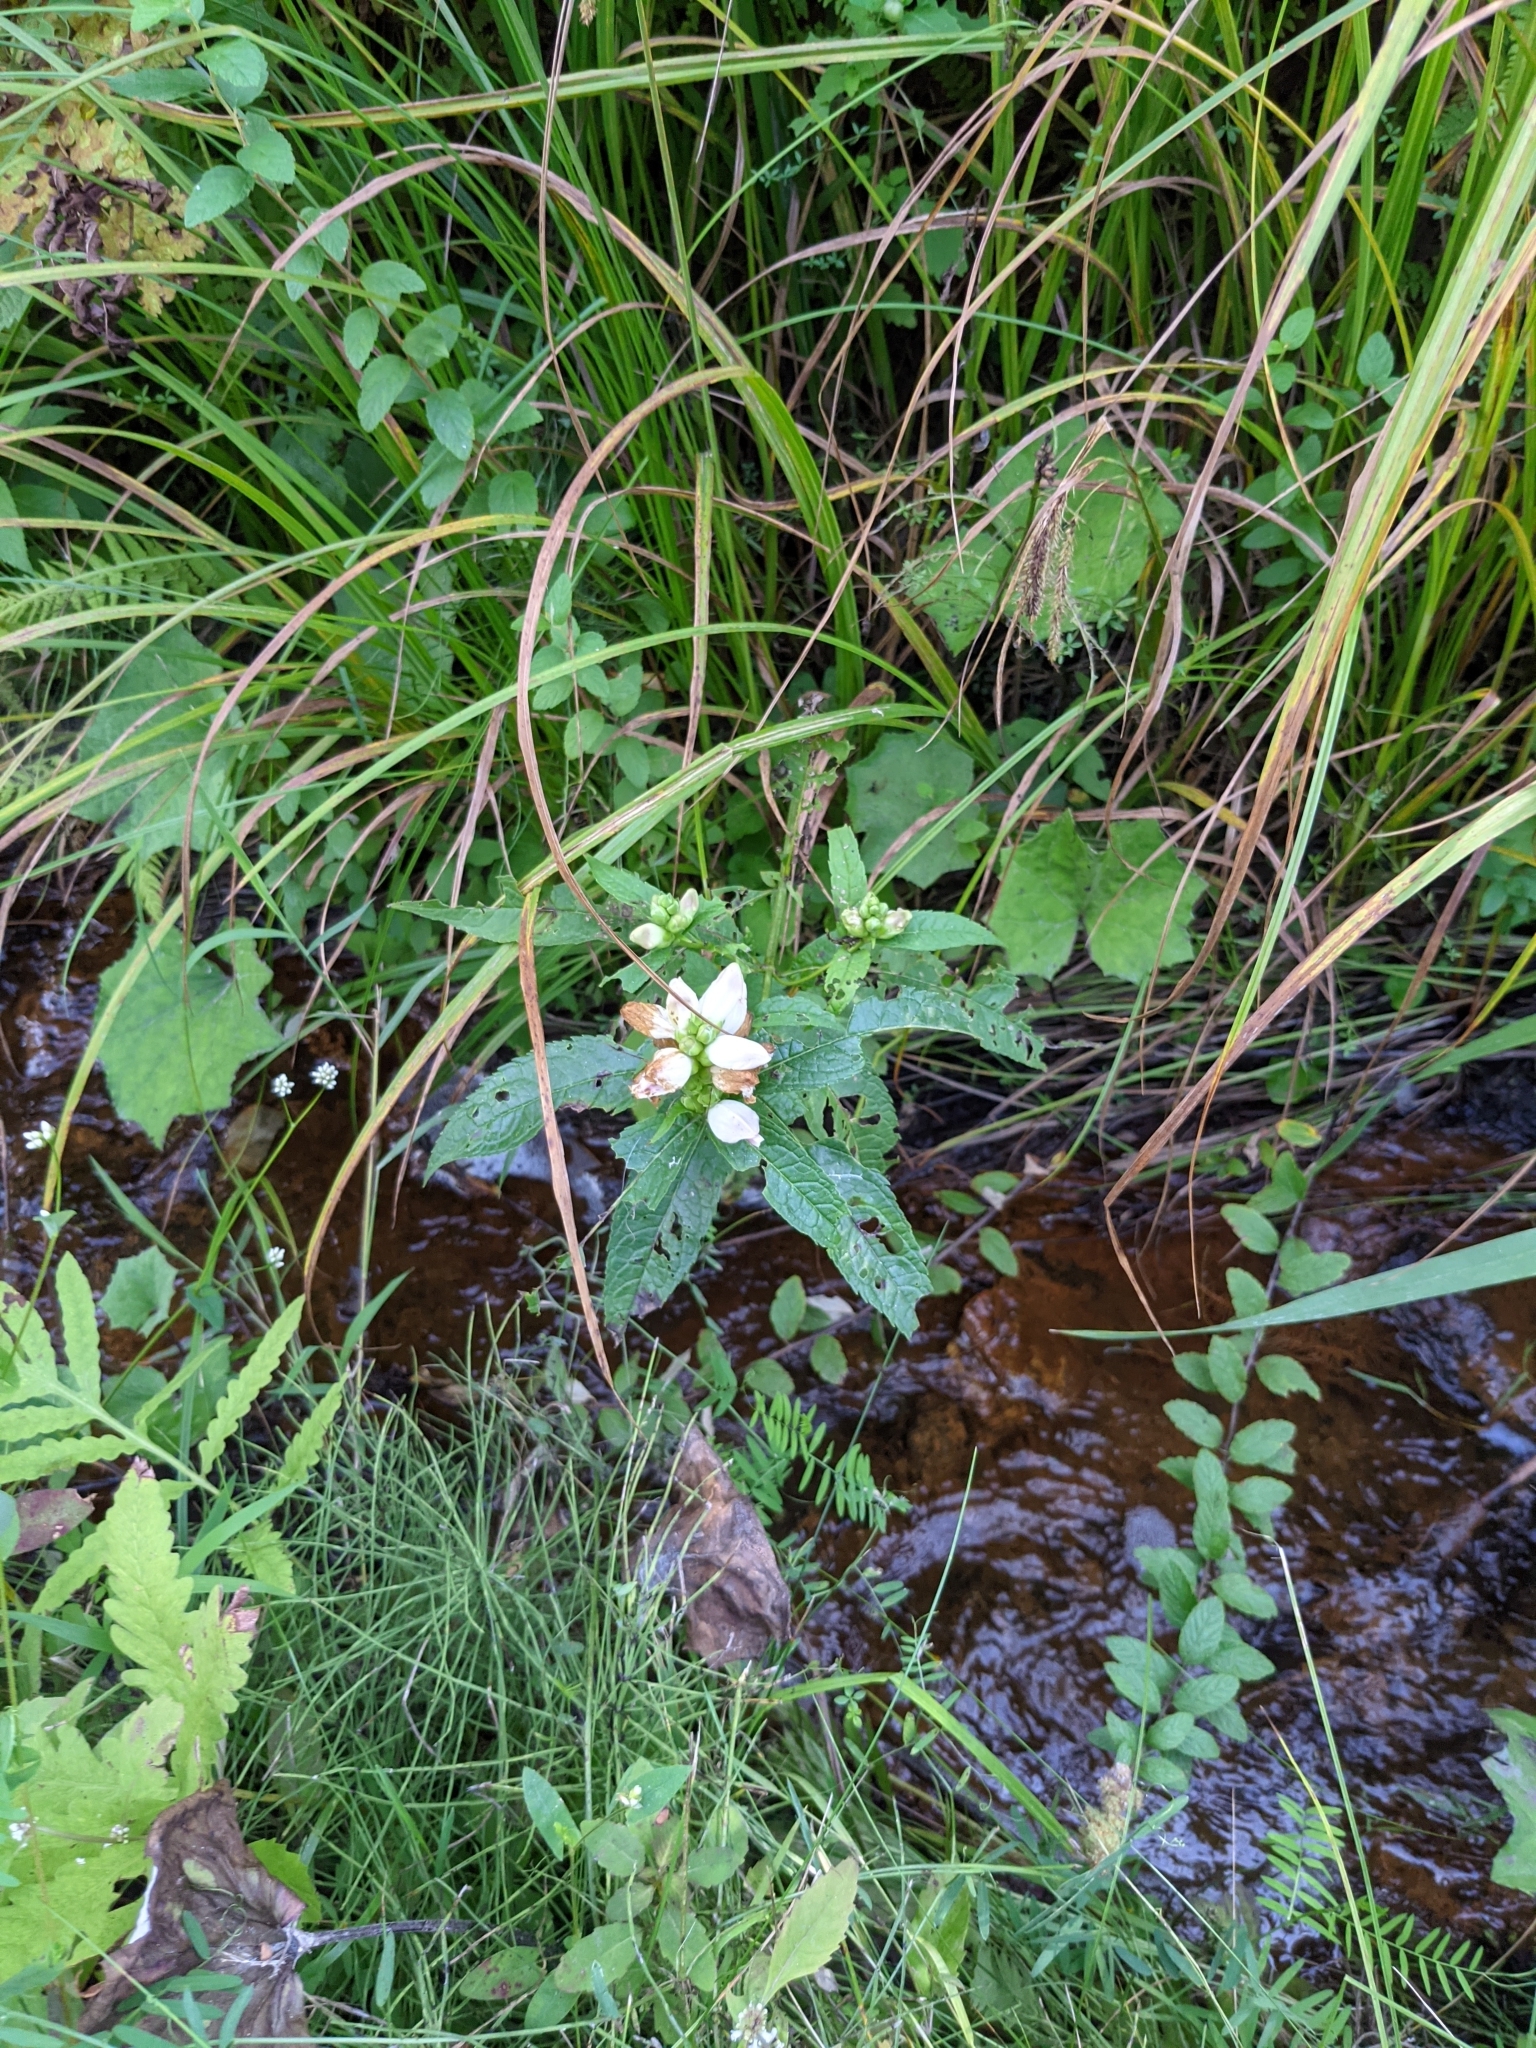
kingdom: Plantae
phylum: Tracheophyta
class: Magnoliopsida
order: Lamiales
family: Plantaginaceae
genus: Chelone
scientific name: Chelone glabra
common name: Snakehead
